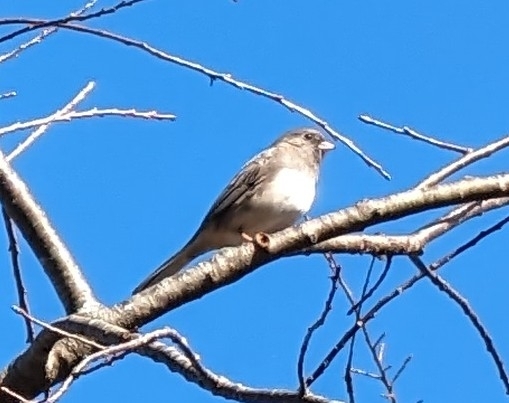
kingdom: Animalia
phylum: Chordata
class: Aves
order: Passeriformes
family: Passerellidae
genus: Junco
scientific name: Junco hyemalis
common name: Dark-eyed junco
